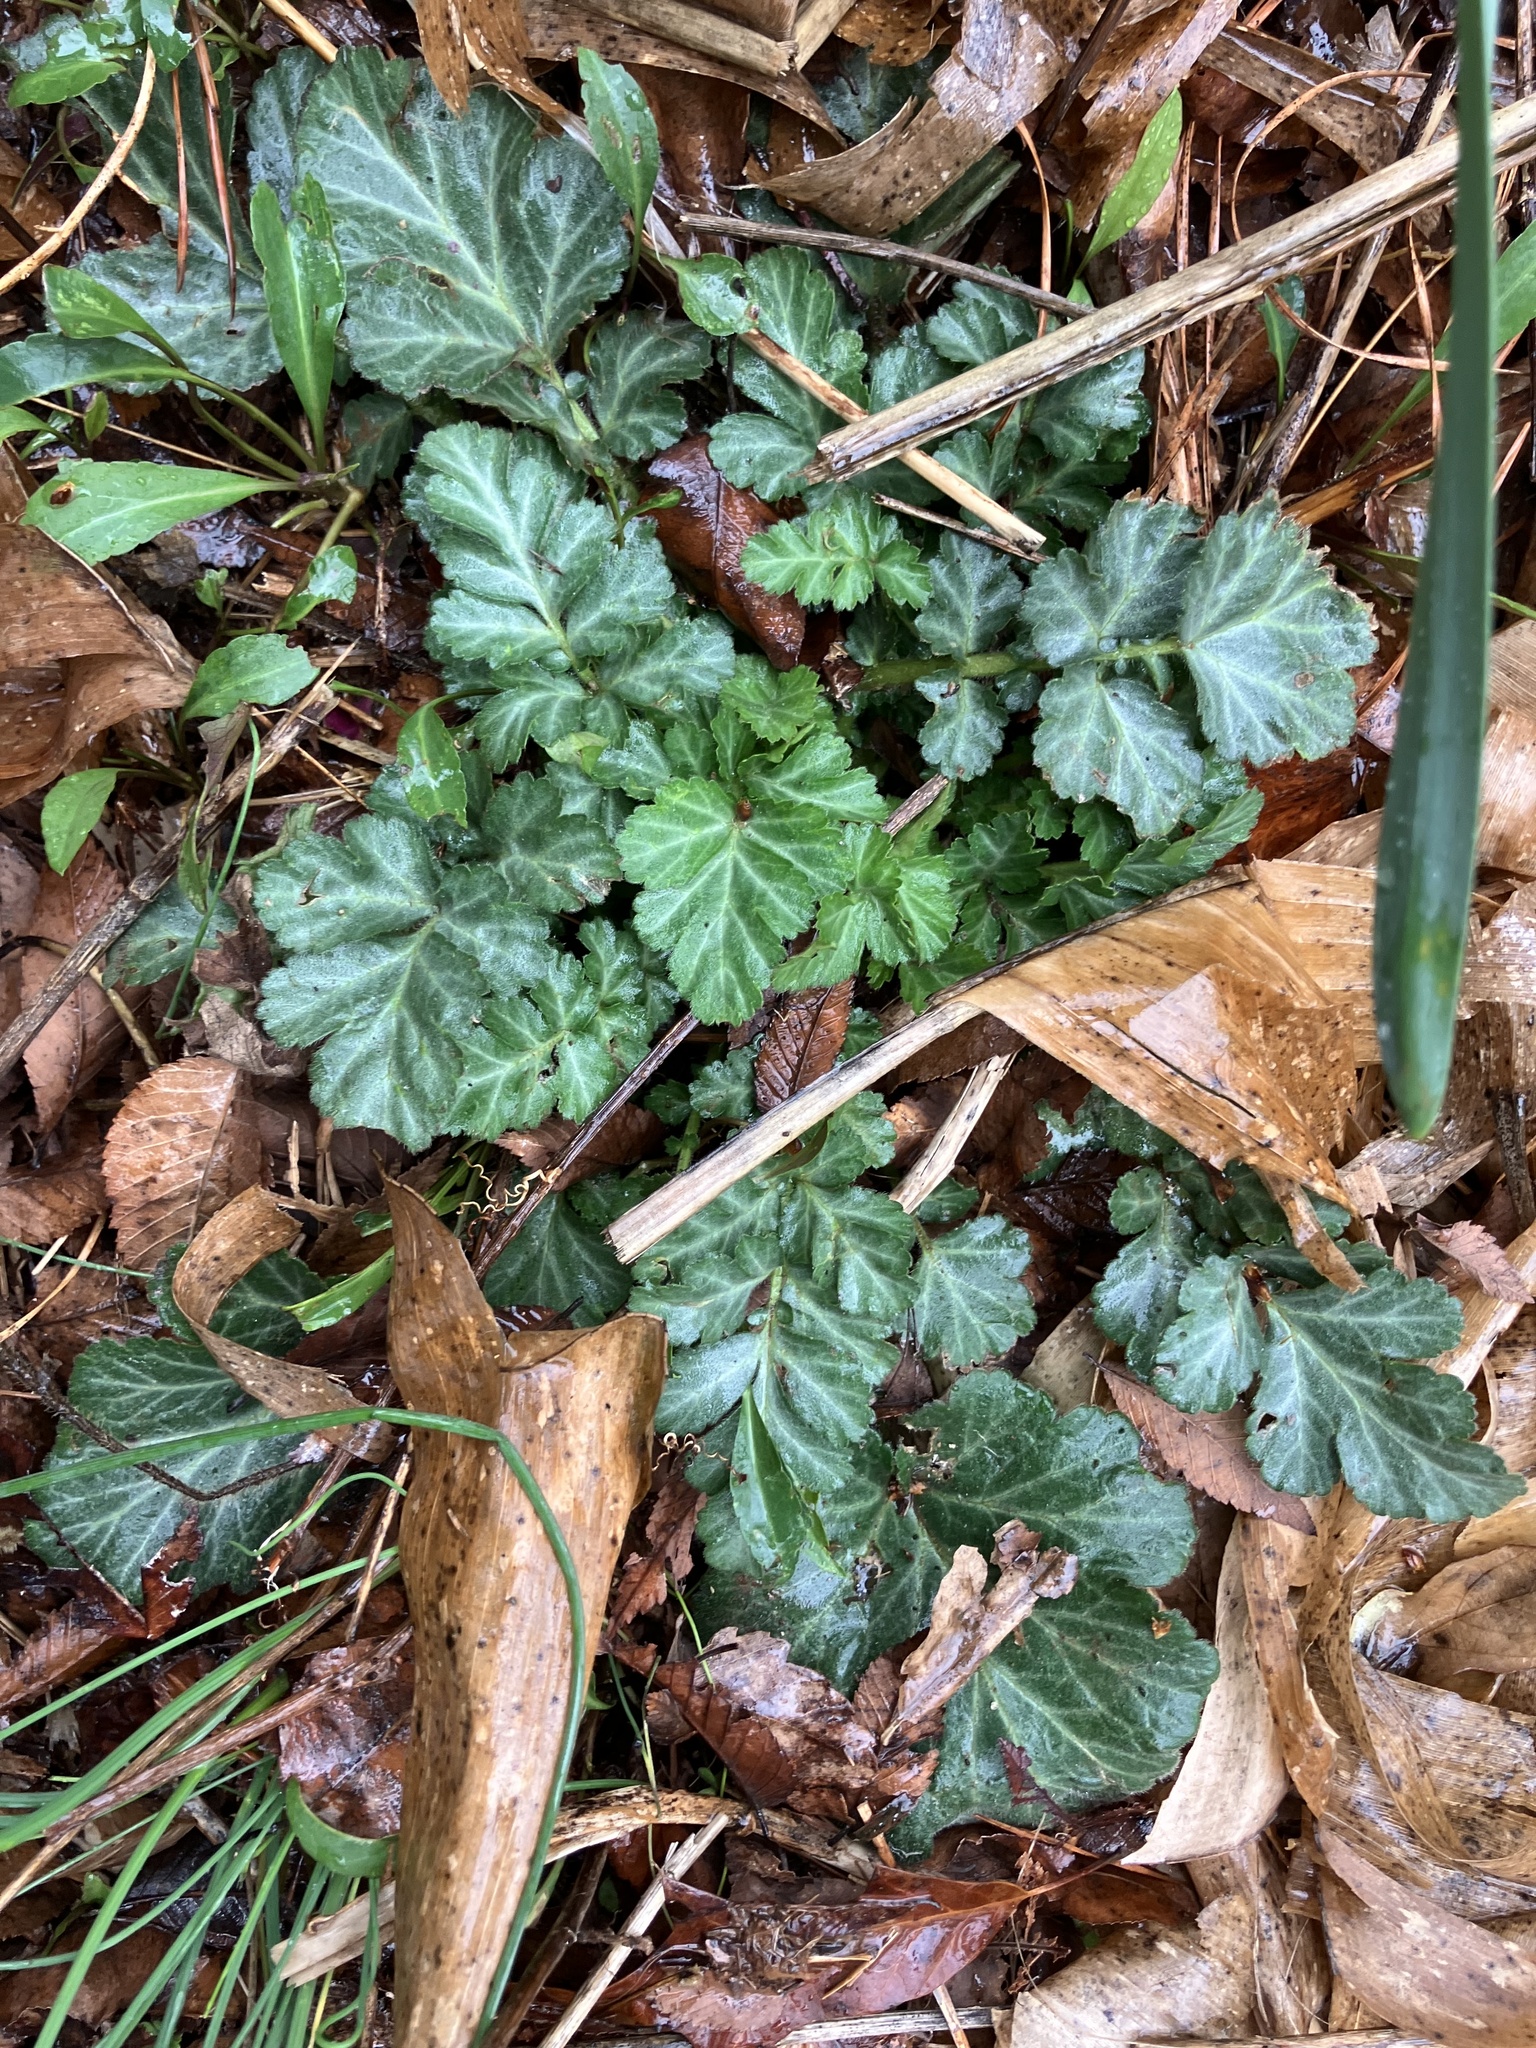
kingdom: Plantae
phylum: Tracheophyta
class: Magnoliopsida
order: Rosales
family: Rosaceae
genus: Geum
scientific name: Geum canadense
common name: White avens
